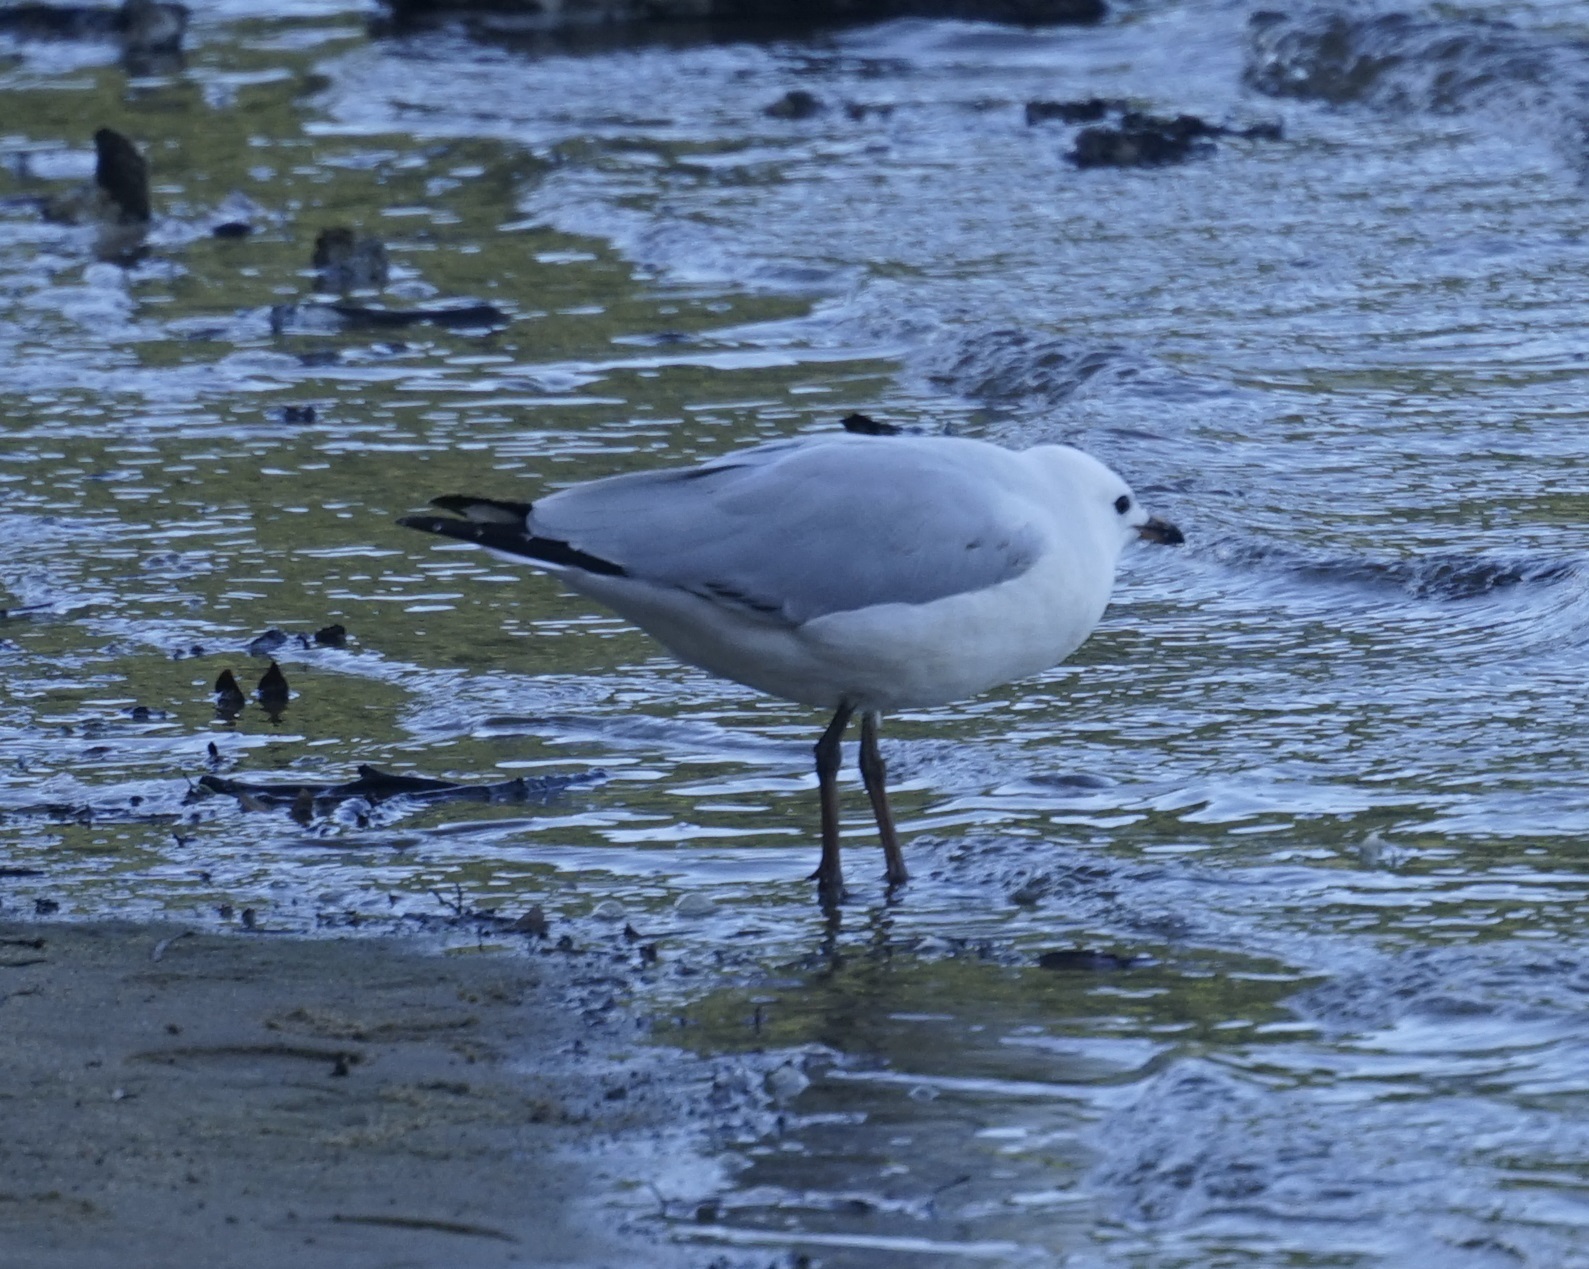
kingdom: Animalia
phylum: Chordata
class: Aves
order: Charadriiformes
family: Laridae
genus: Chroicocephalus
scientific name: Chroicocephalus novaehollandiae
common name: Silver gull
